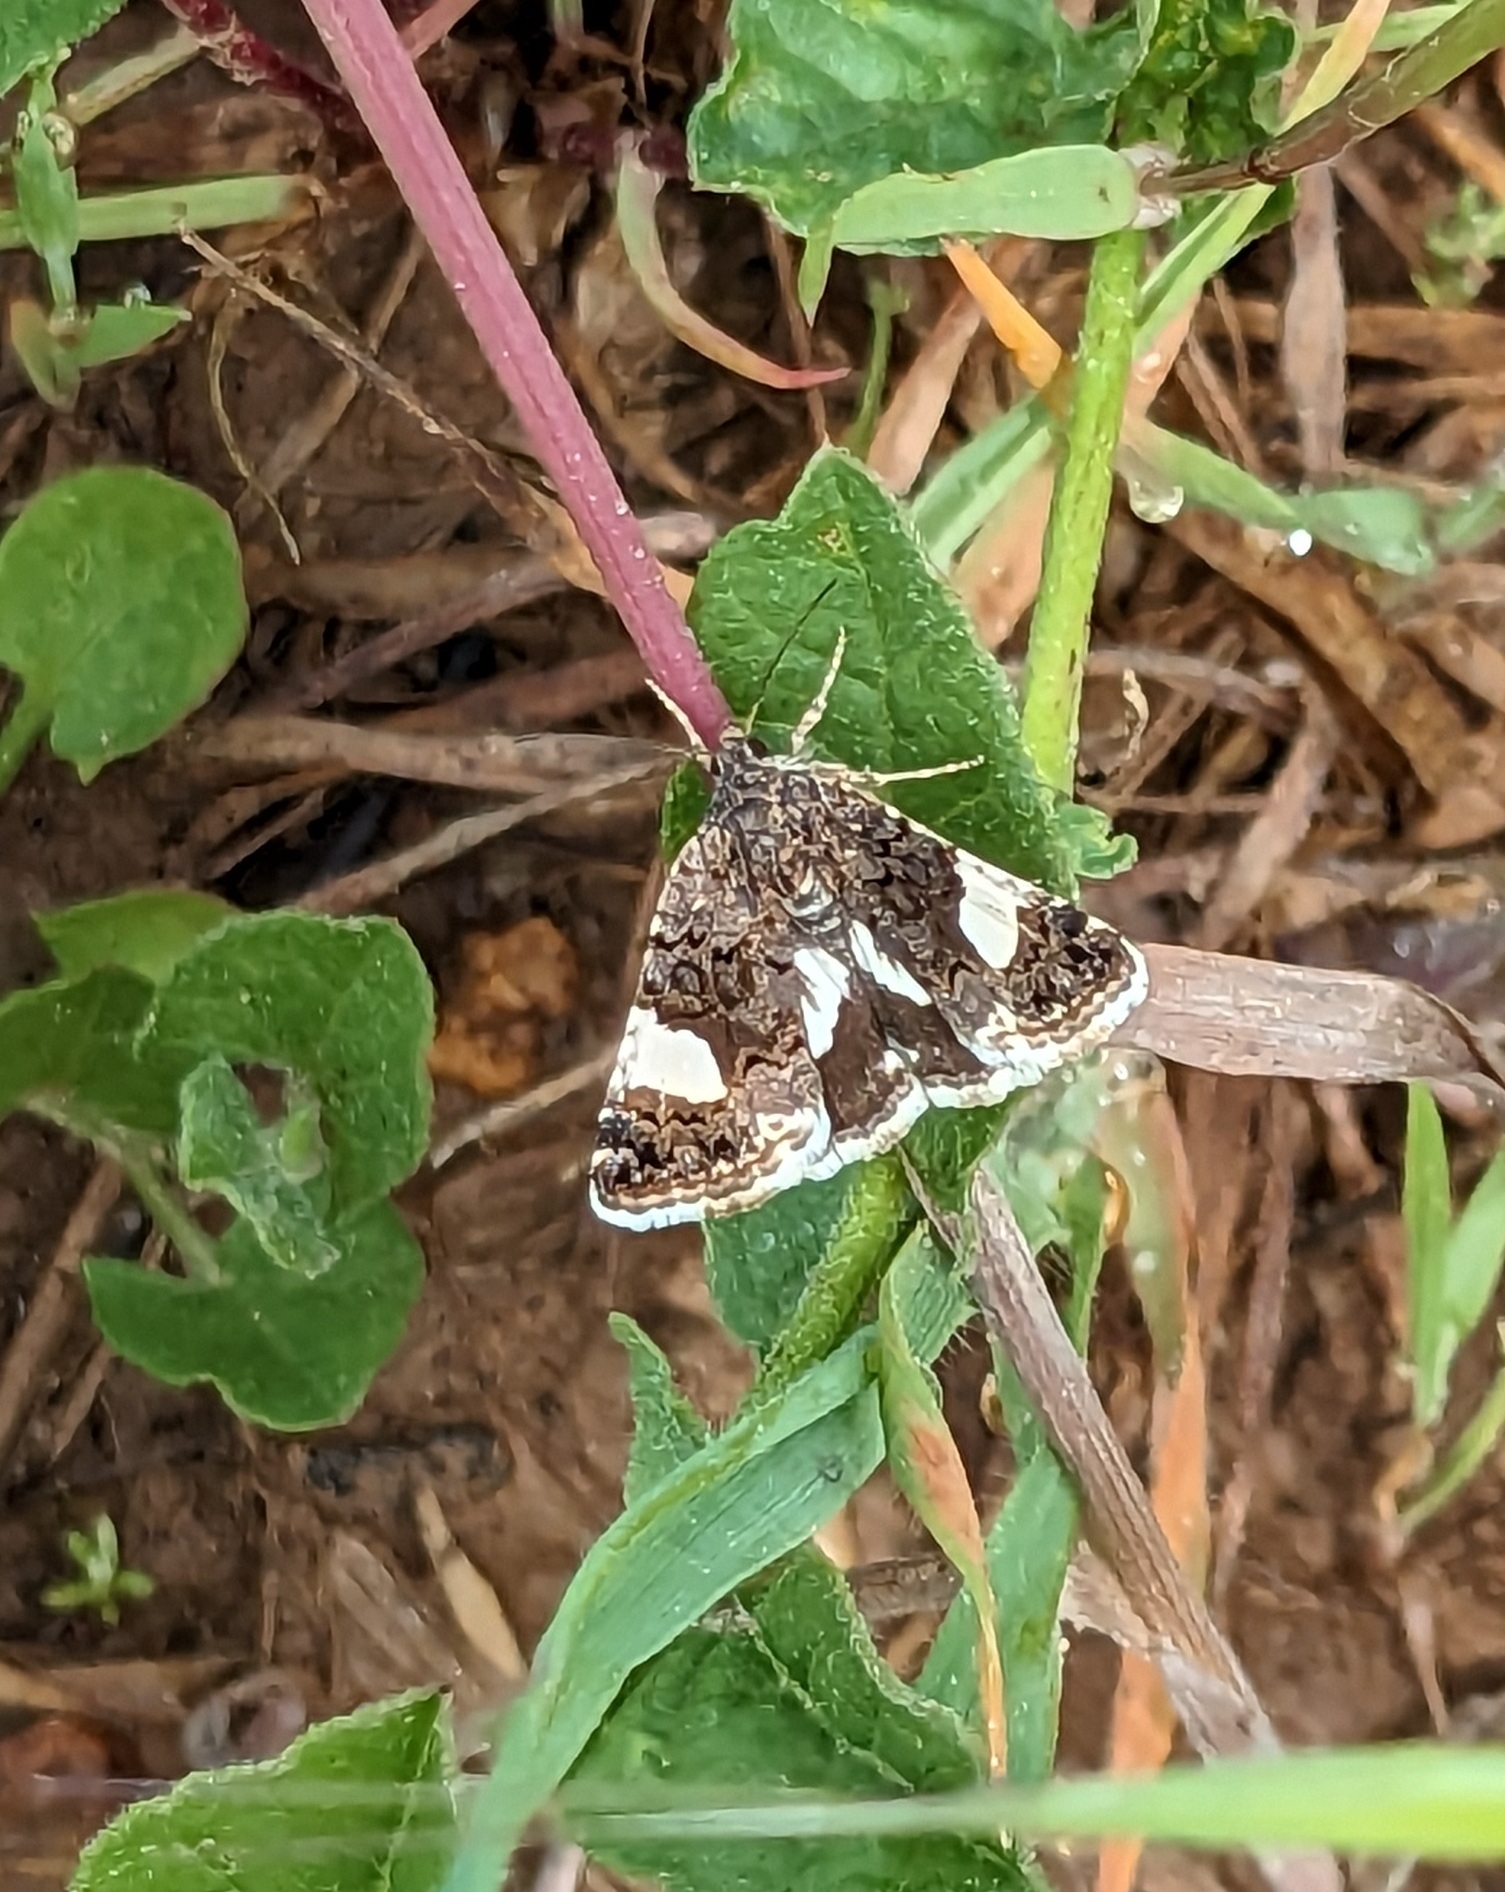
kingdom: Animalia
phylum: Arthropoda
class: Insecta
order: Lepidoptera
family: Erebidae
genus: Tyta
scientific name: Tyta luctuosa
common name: Four-spotted
